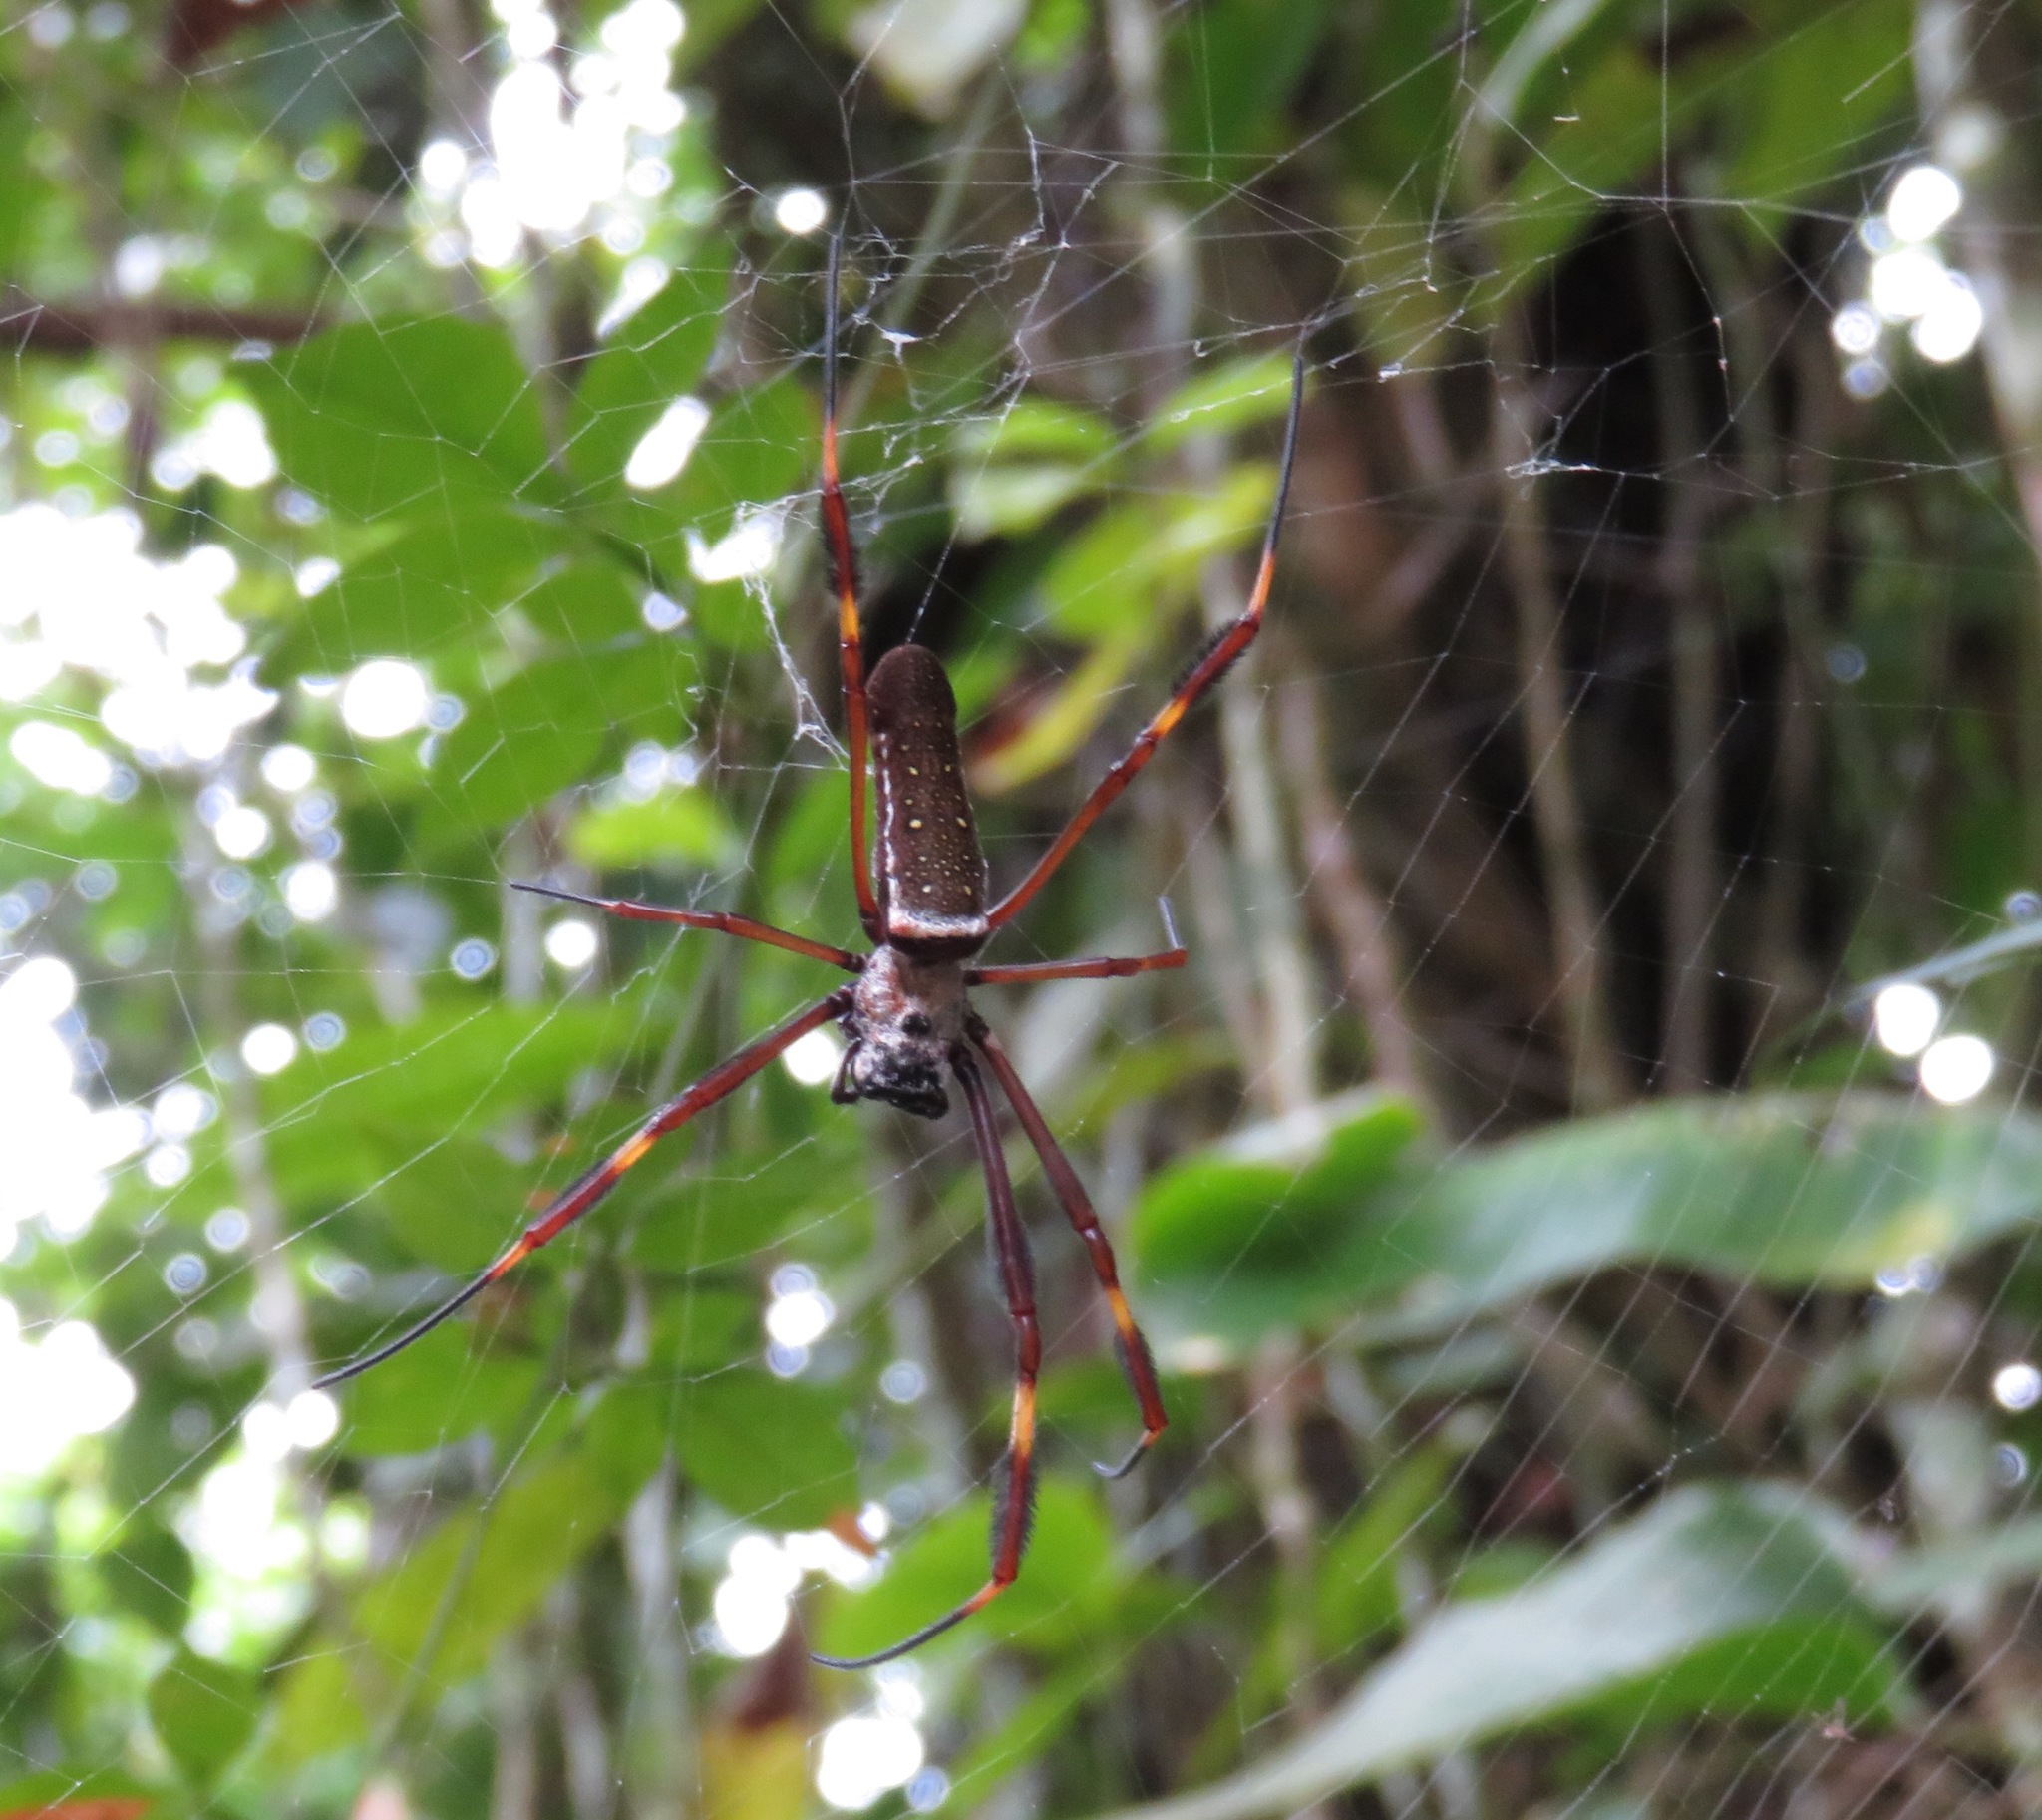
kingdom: Animalia
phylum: Arthropoda
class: Arachnida
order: Araneae
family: Araneidae
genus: Trichonephila
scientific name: Trichonephila clavipes
